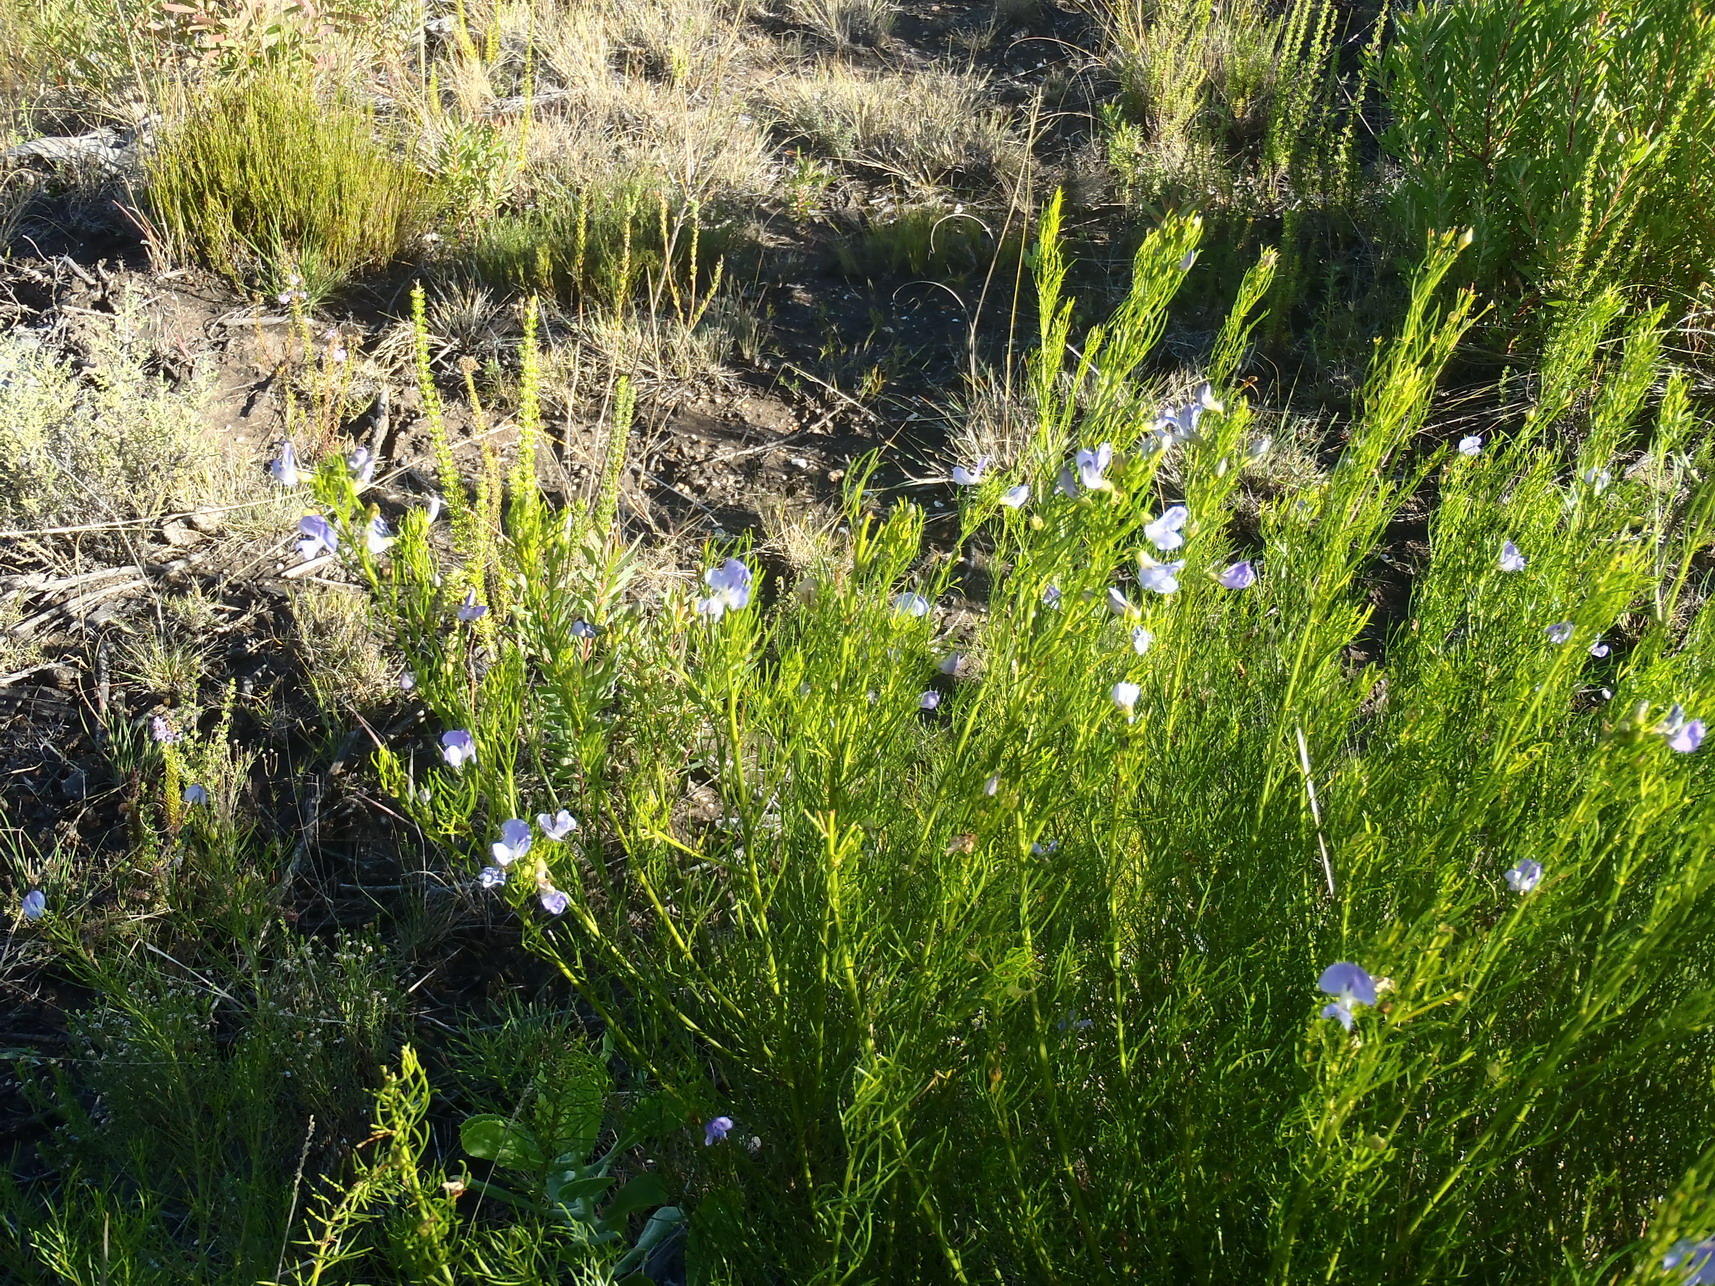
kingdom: Plantae
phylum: Tracheophyta
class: Magnoliopsida
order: Fabales
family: Fabaceae
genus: Psoralea
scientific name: Psoralea laevigata
